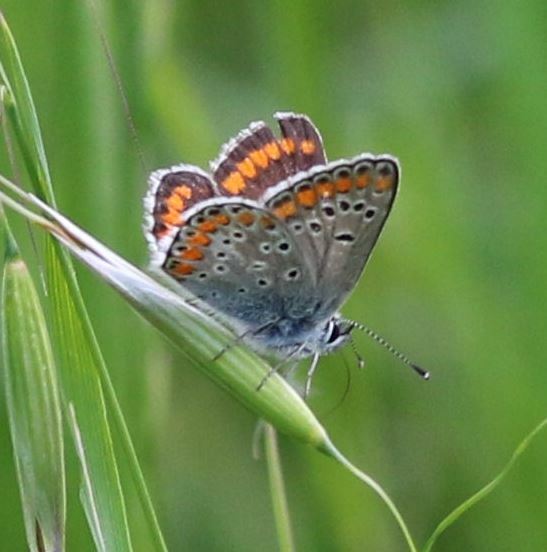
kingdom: Animalia
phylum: Arthropoda
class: Insecta
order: Lepidoptera
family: Lycaenidae
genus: Aricia
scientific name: Aricia agestis
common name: Brown argus
